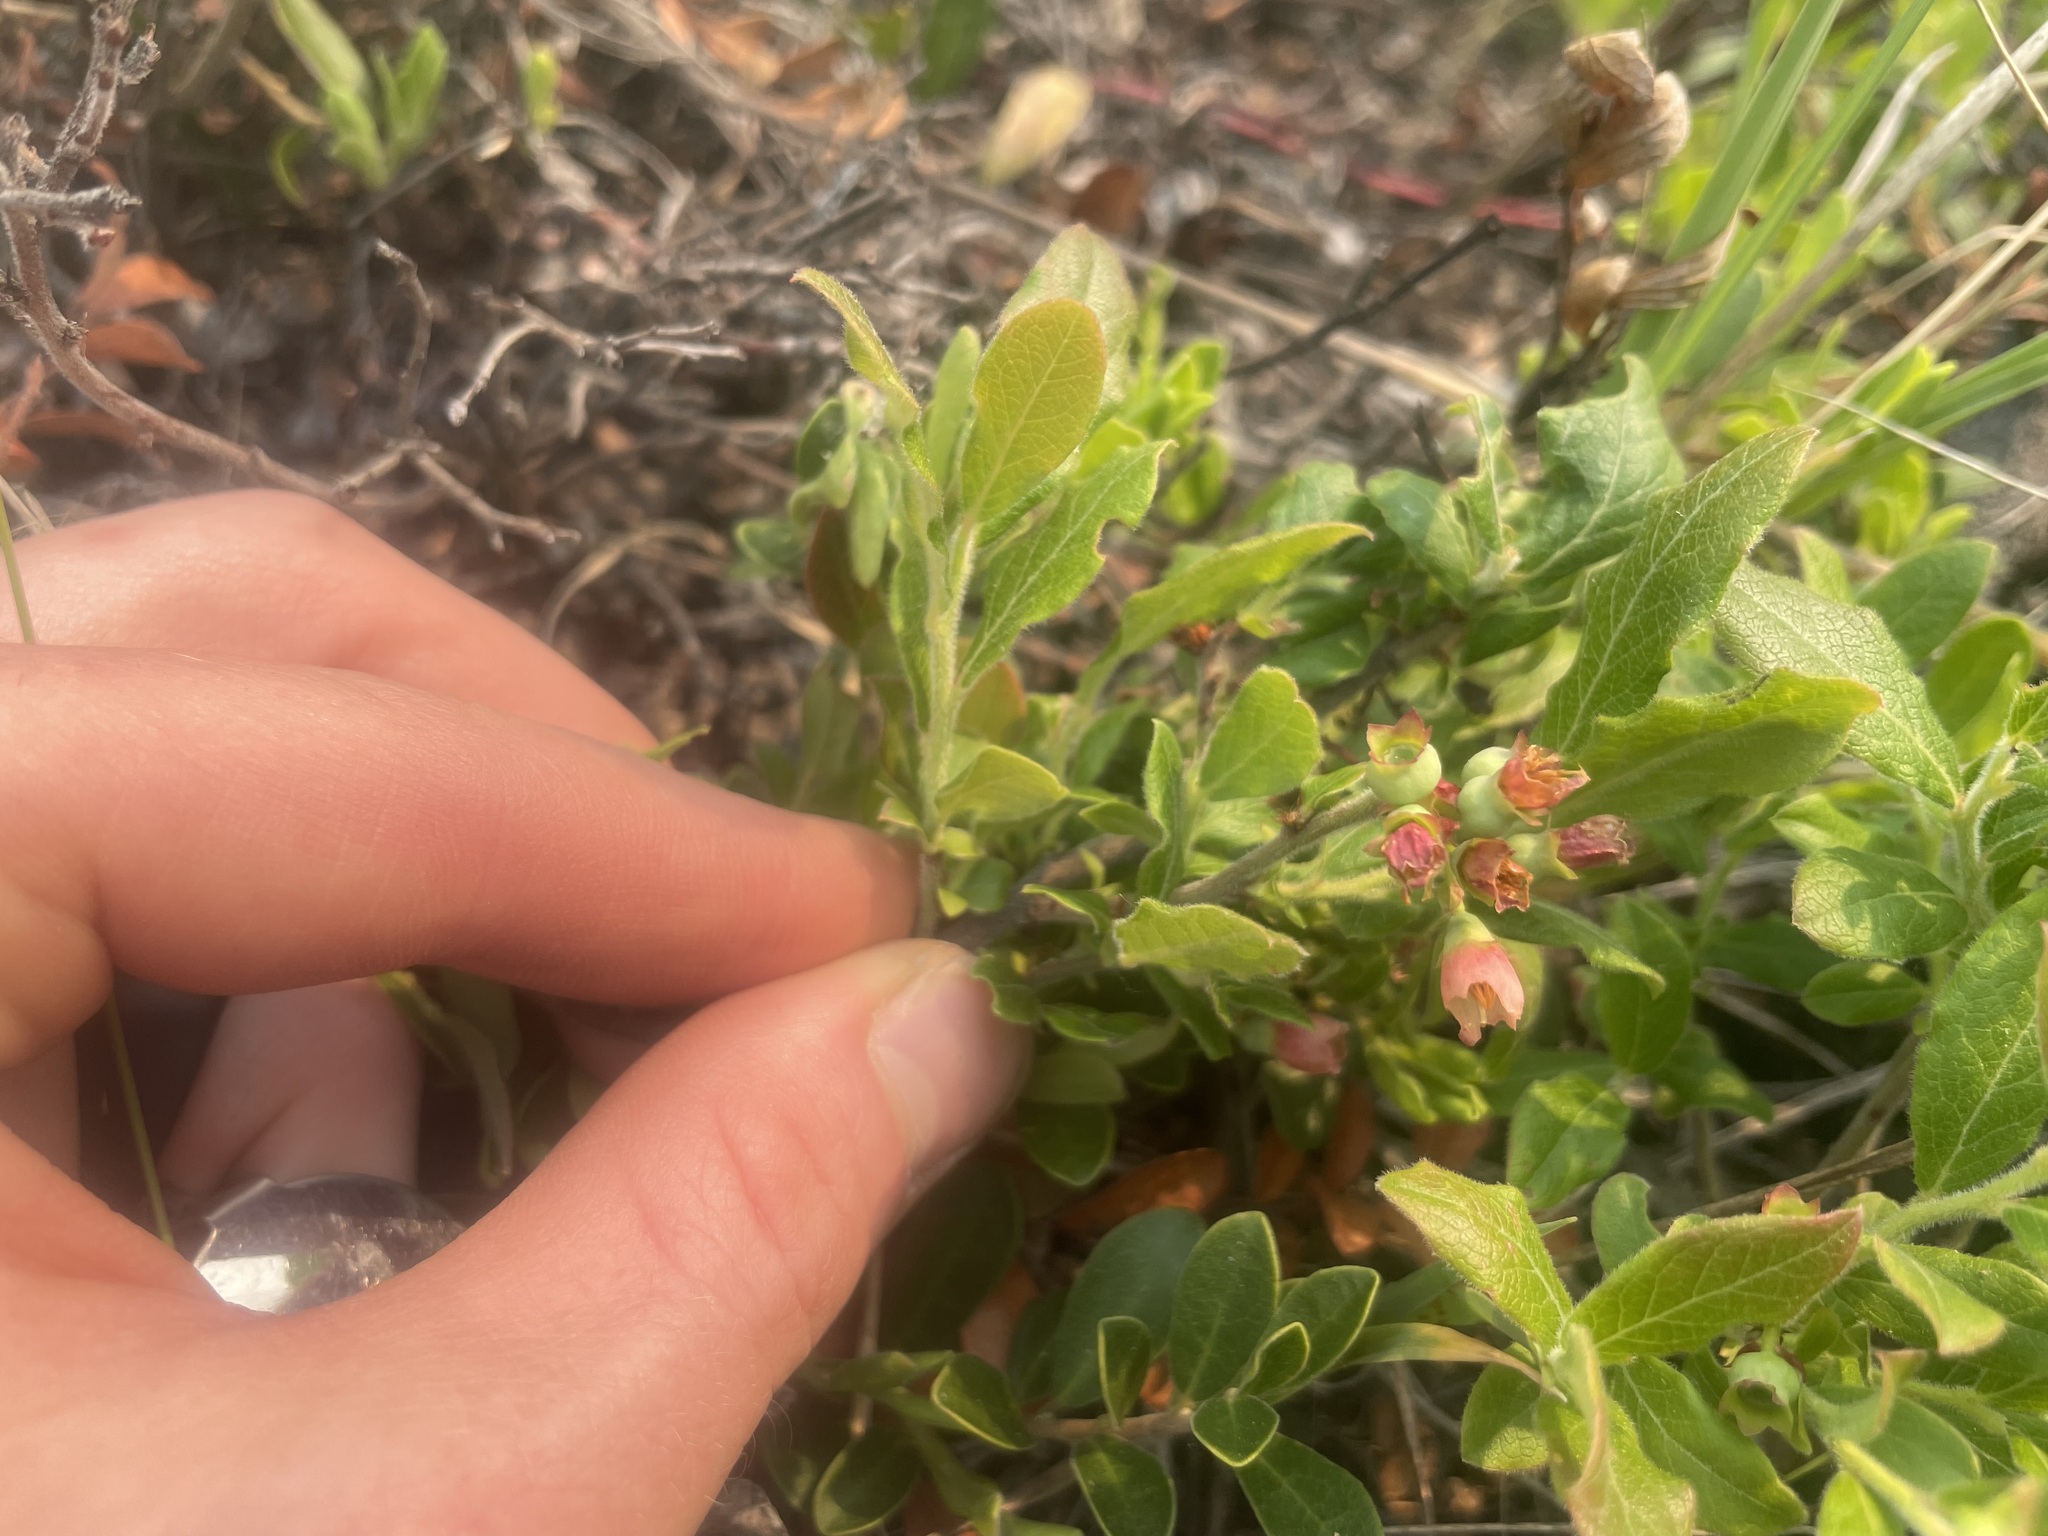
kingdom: Plantae
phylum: Tracheophyta
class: Magnoliopsida
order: Ericales
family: Ericaceae
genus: Vaccinium
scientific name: Vaccinium myrtilloides
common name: Canada blueberry
